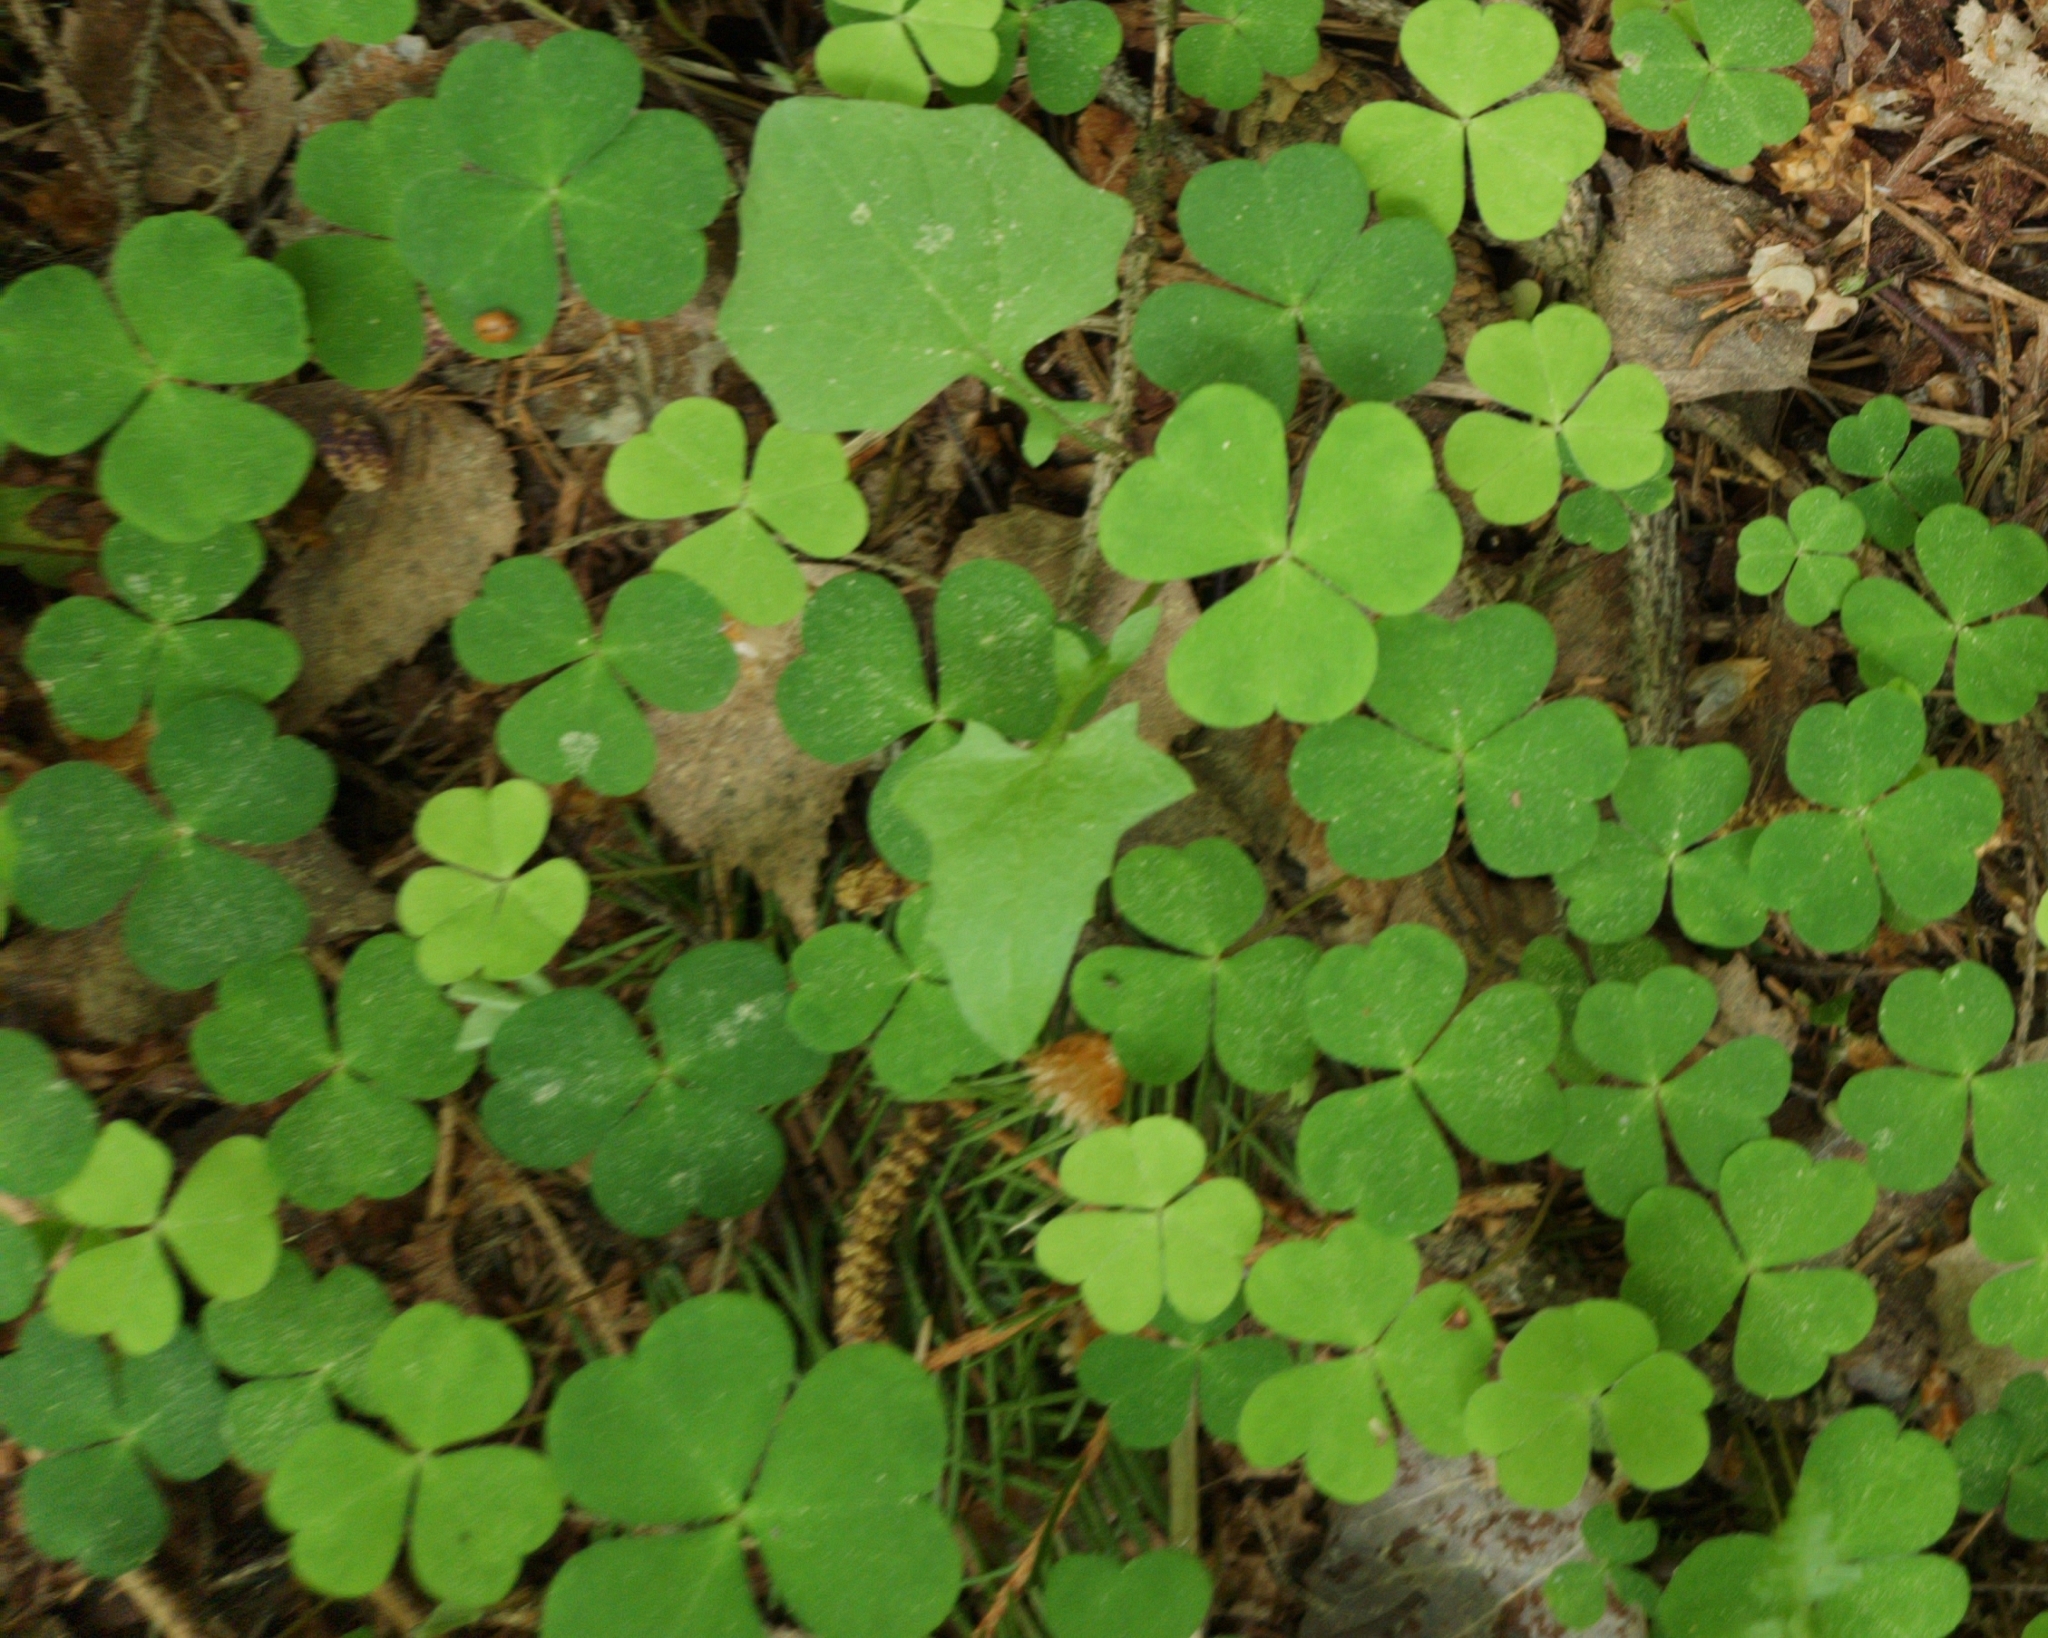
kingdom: Plantae
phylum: Tracheophyta
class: Magnoliopsida
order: Oxalidales
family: Oxalidaceae
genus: Oxalis
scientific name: Oxalis acetosella
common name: Wood-sorrel
